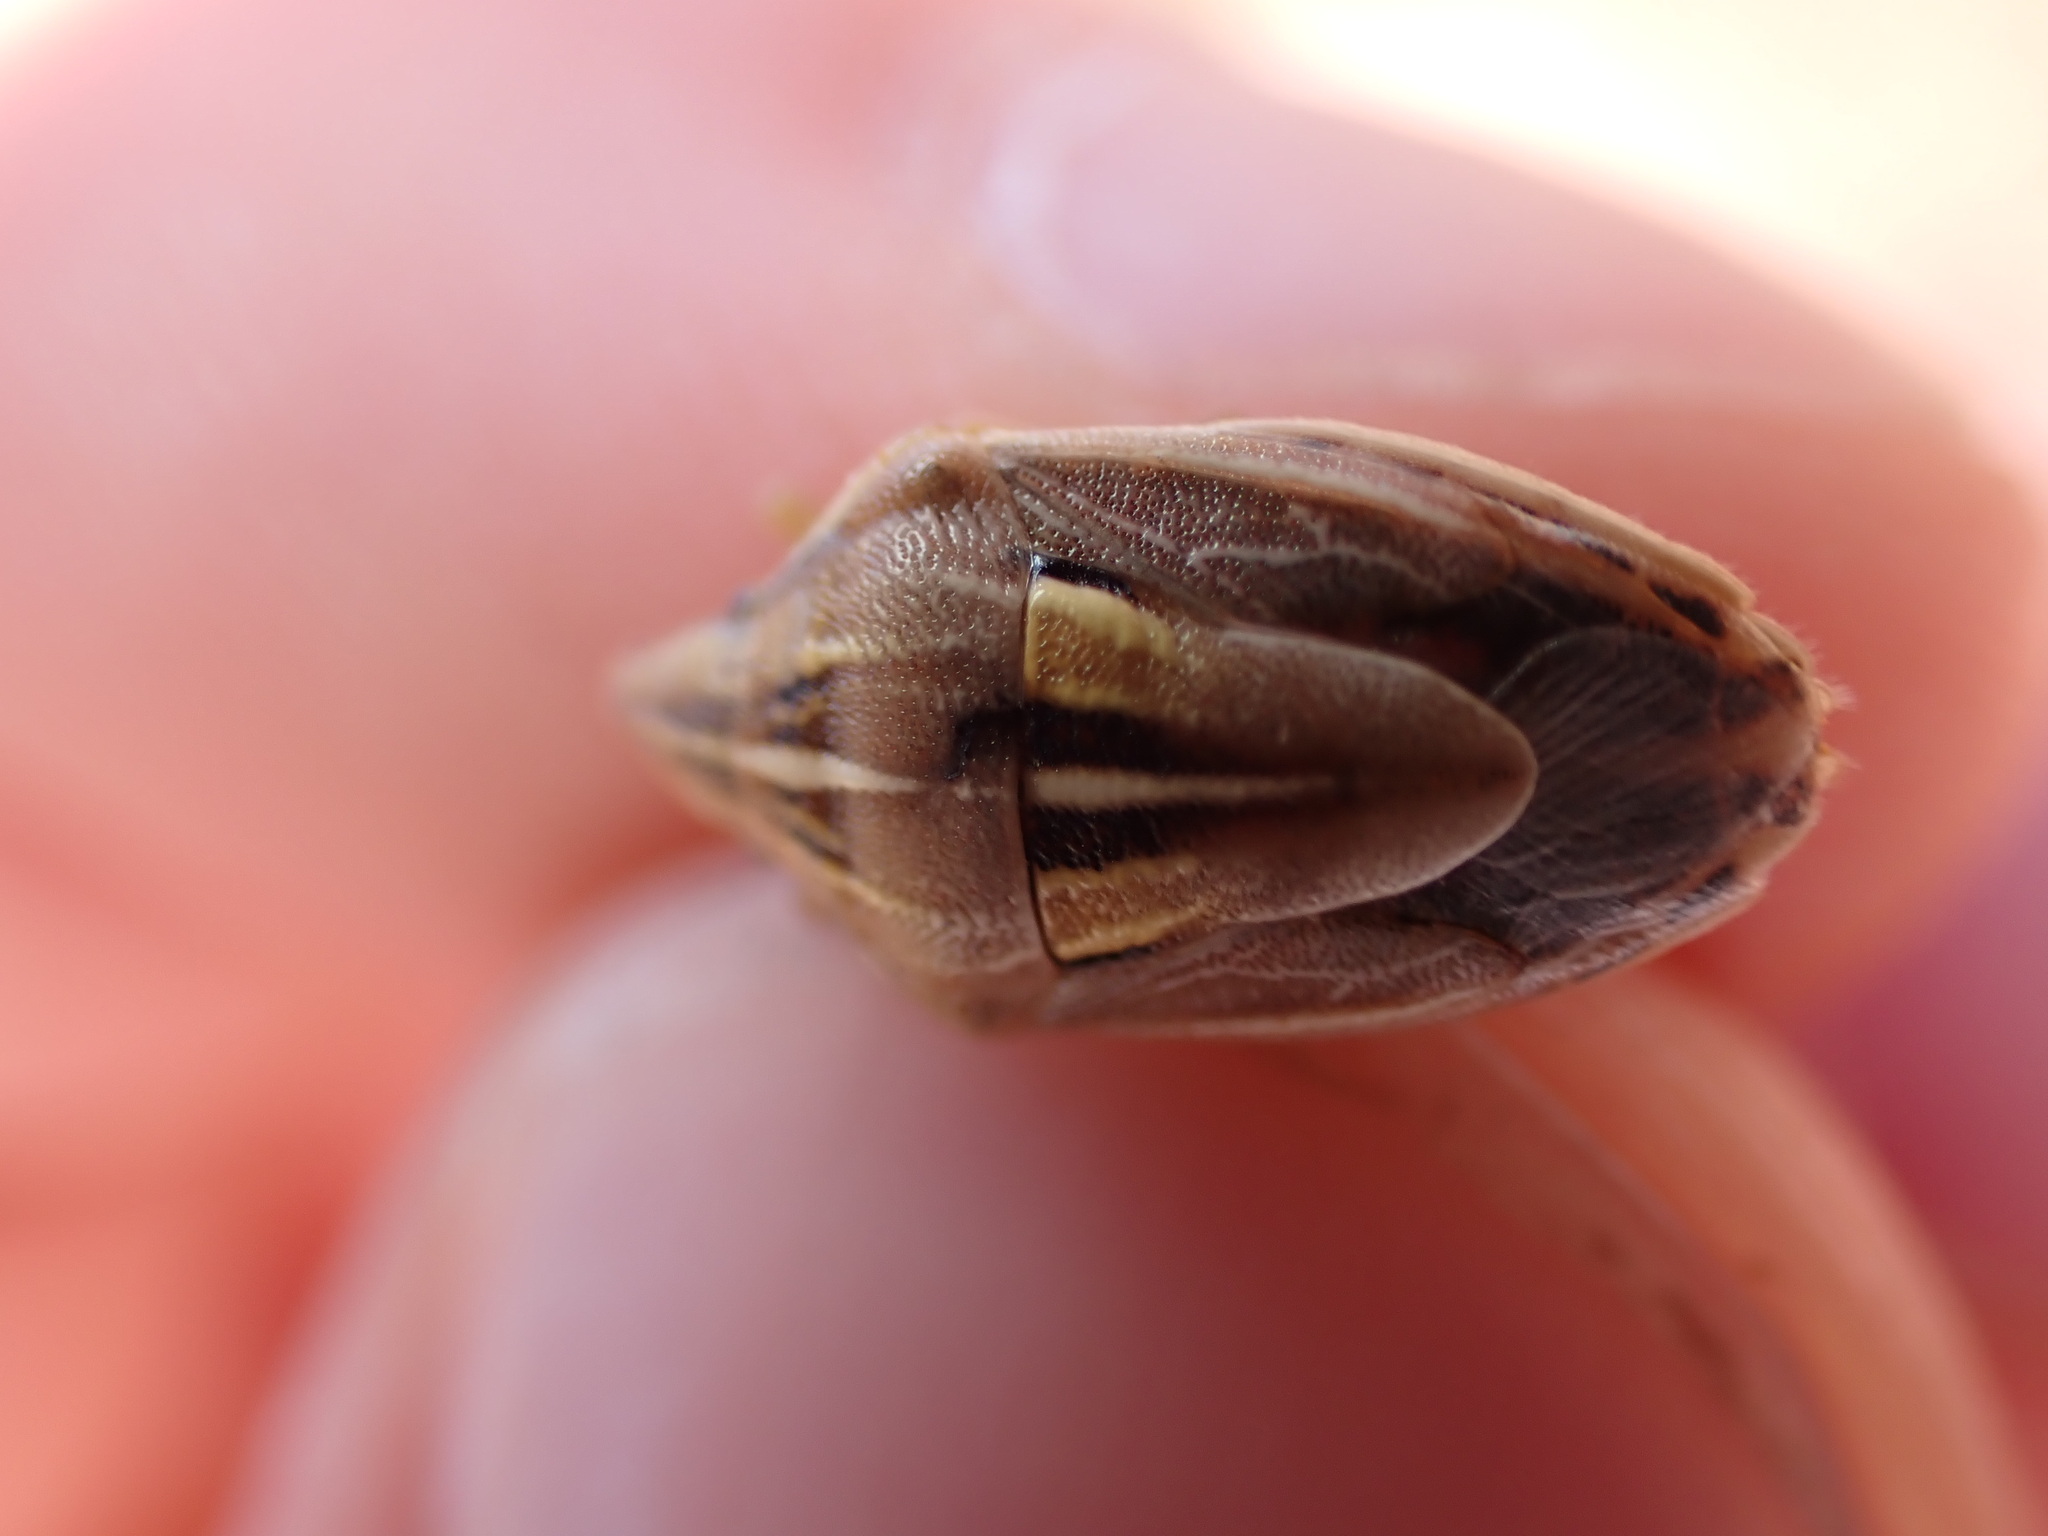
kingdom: Animalia
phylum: Arthropoda
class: Insecta
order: Hemiptera
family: Pentatomidae
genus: Aelia
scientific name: Aelia rostrata
